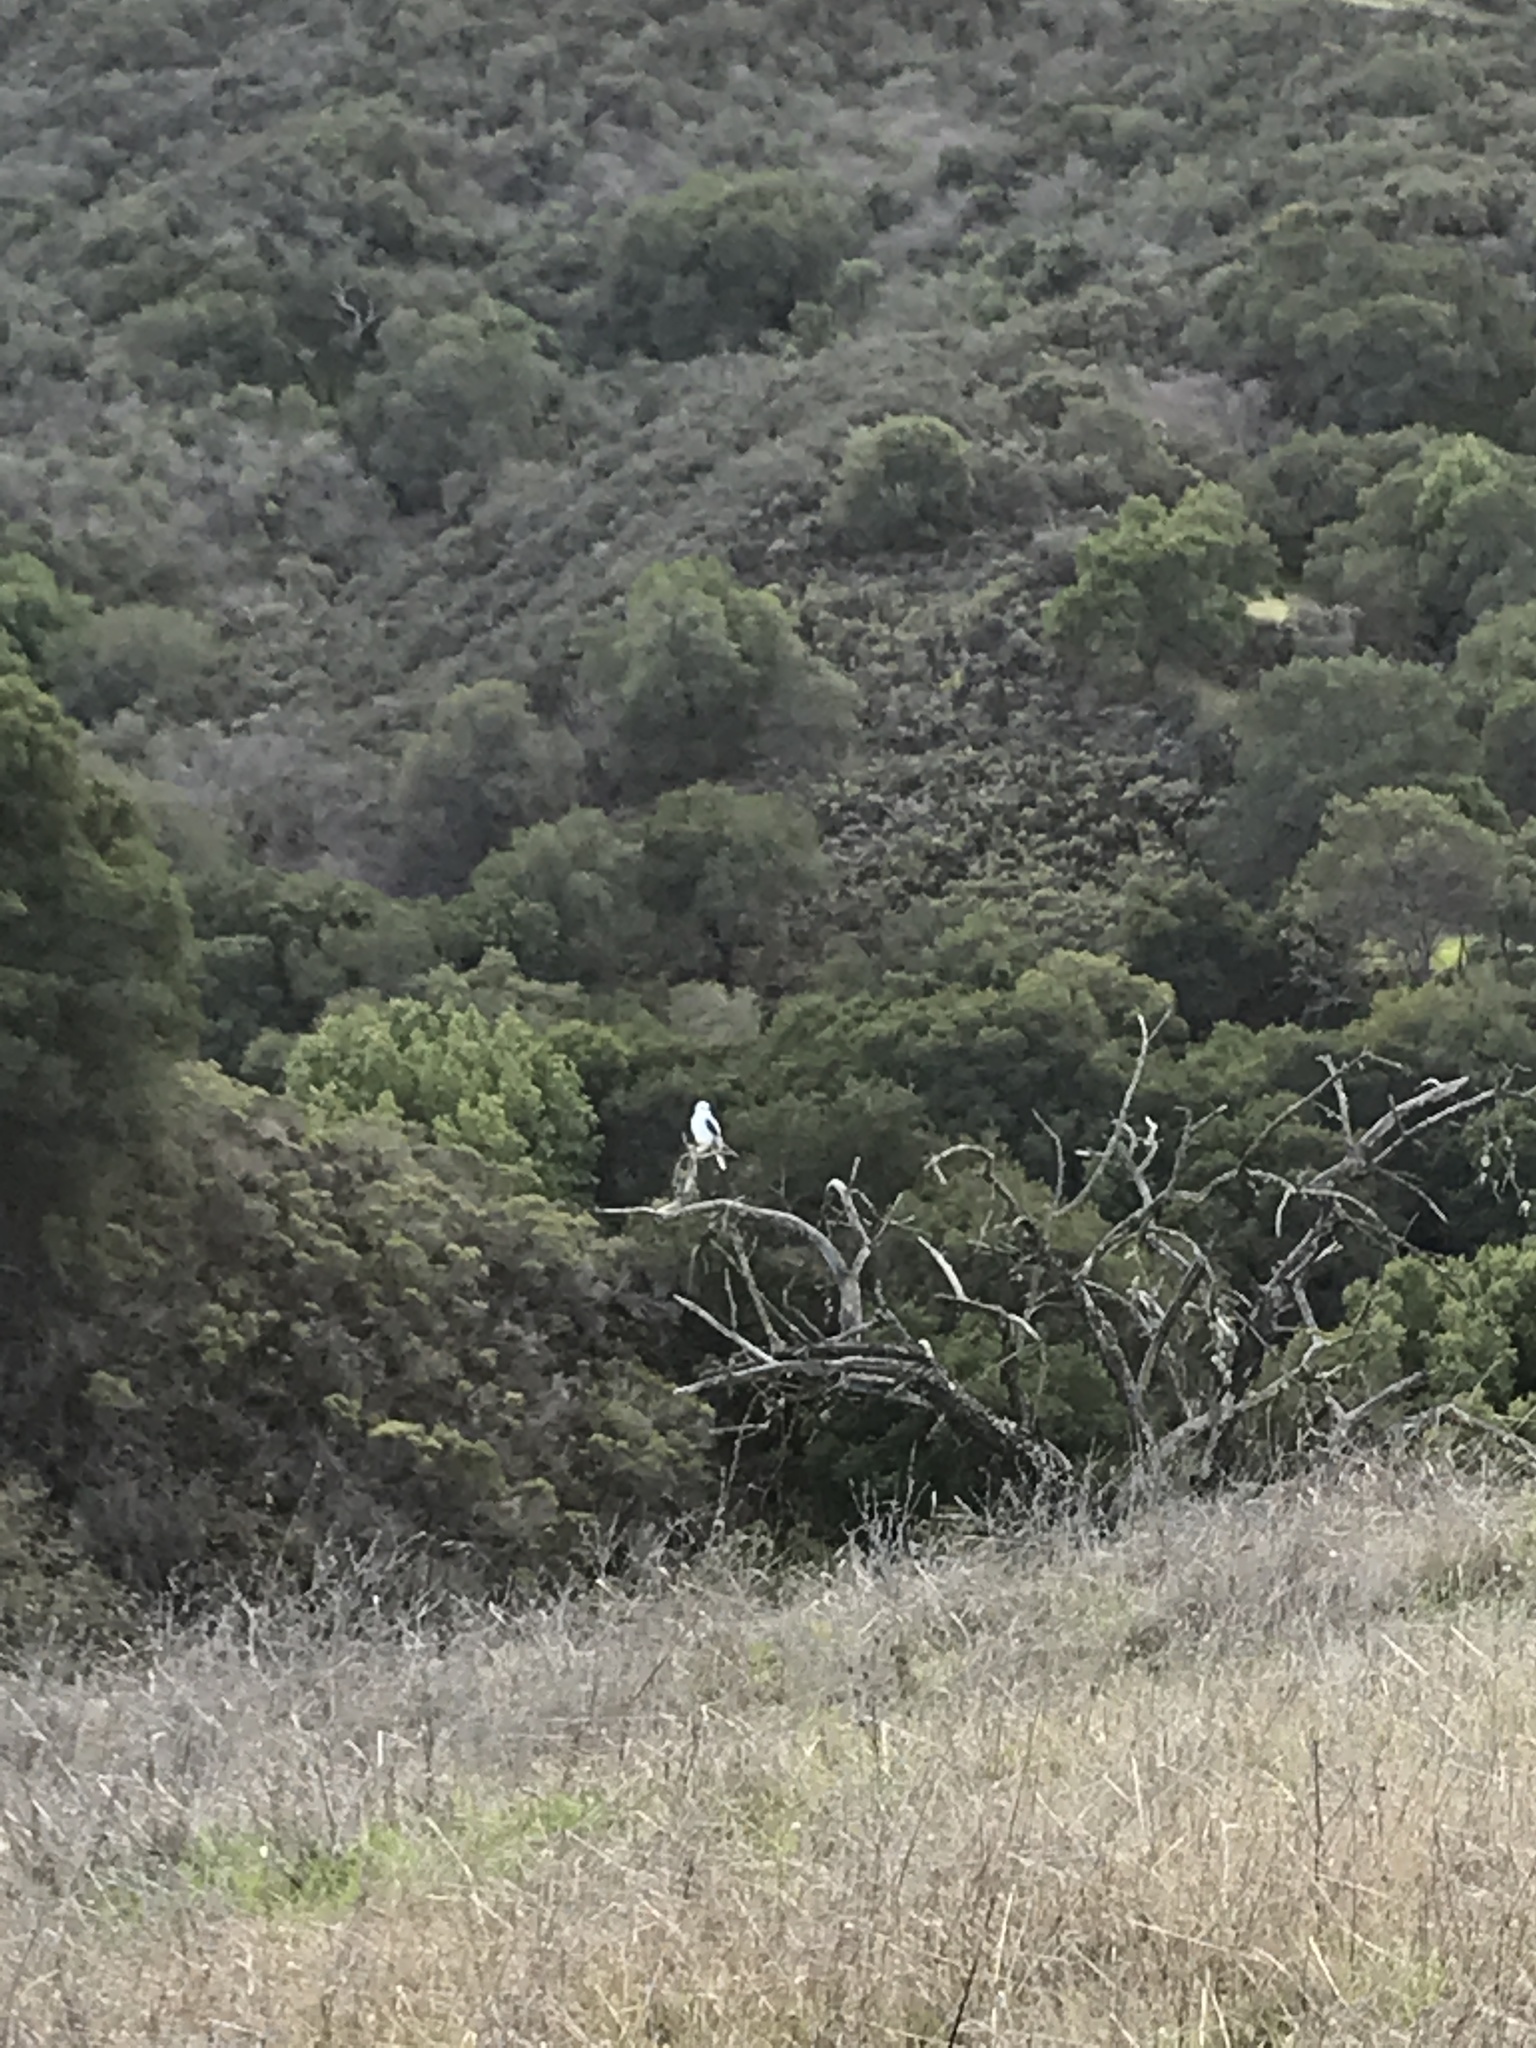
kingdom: Animalia
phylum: Chordata
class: Aves
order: Accipitriformes
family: Accipitridae
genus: Elanus
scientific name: Elanus leucurus
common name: White-tailed kite
